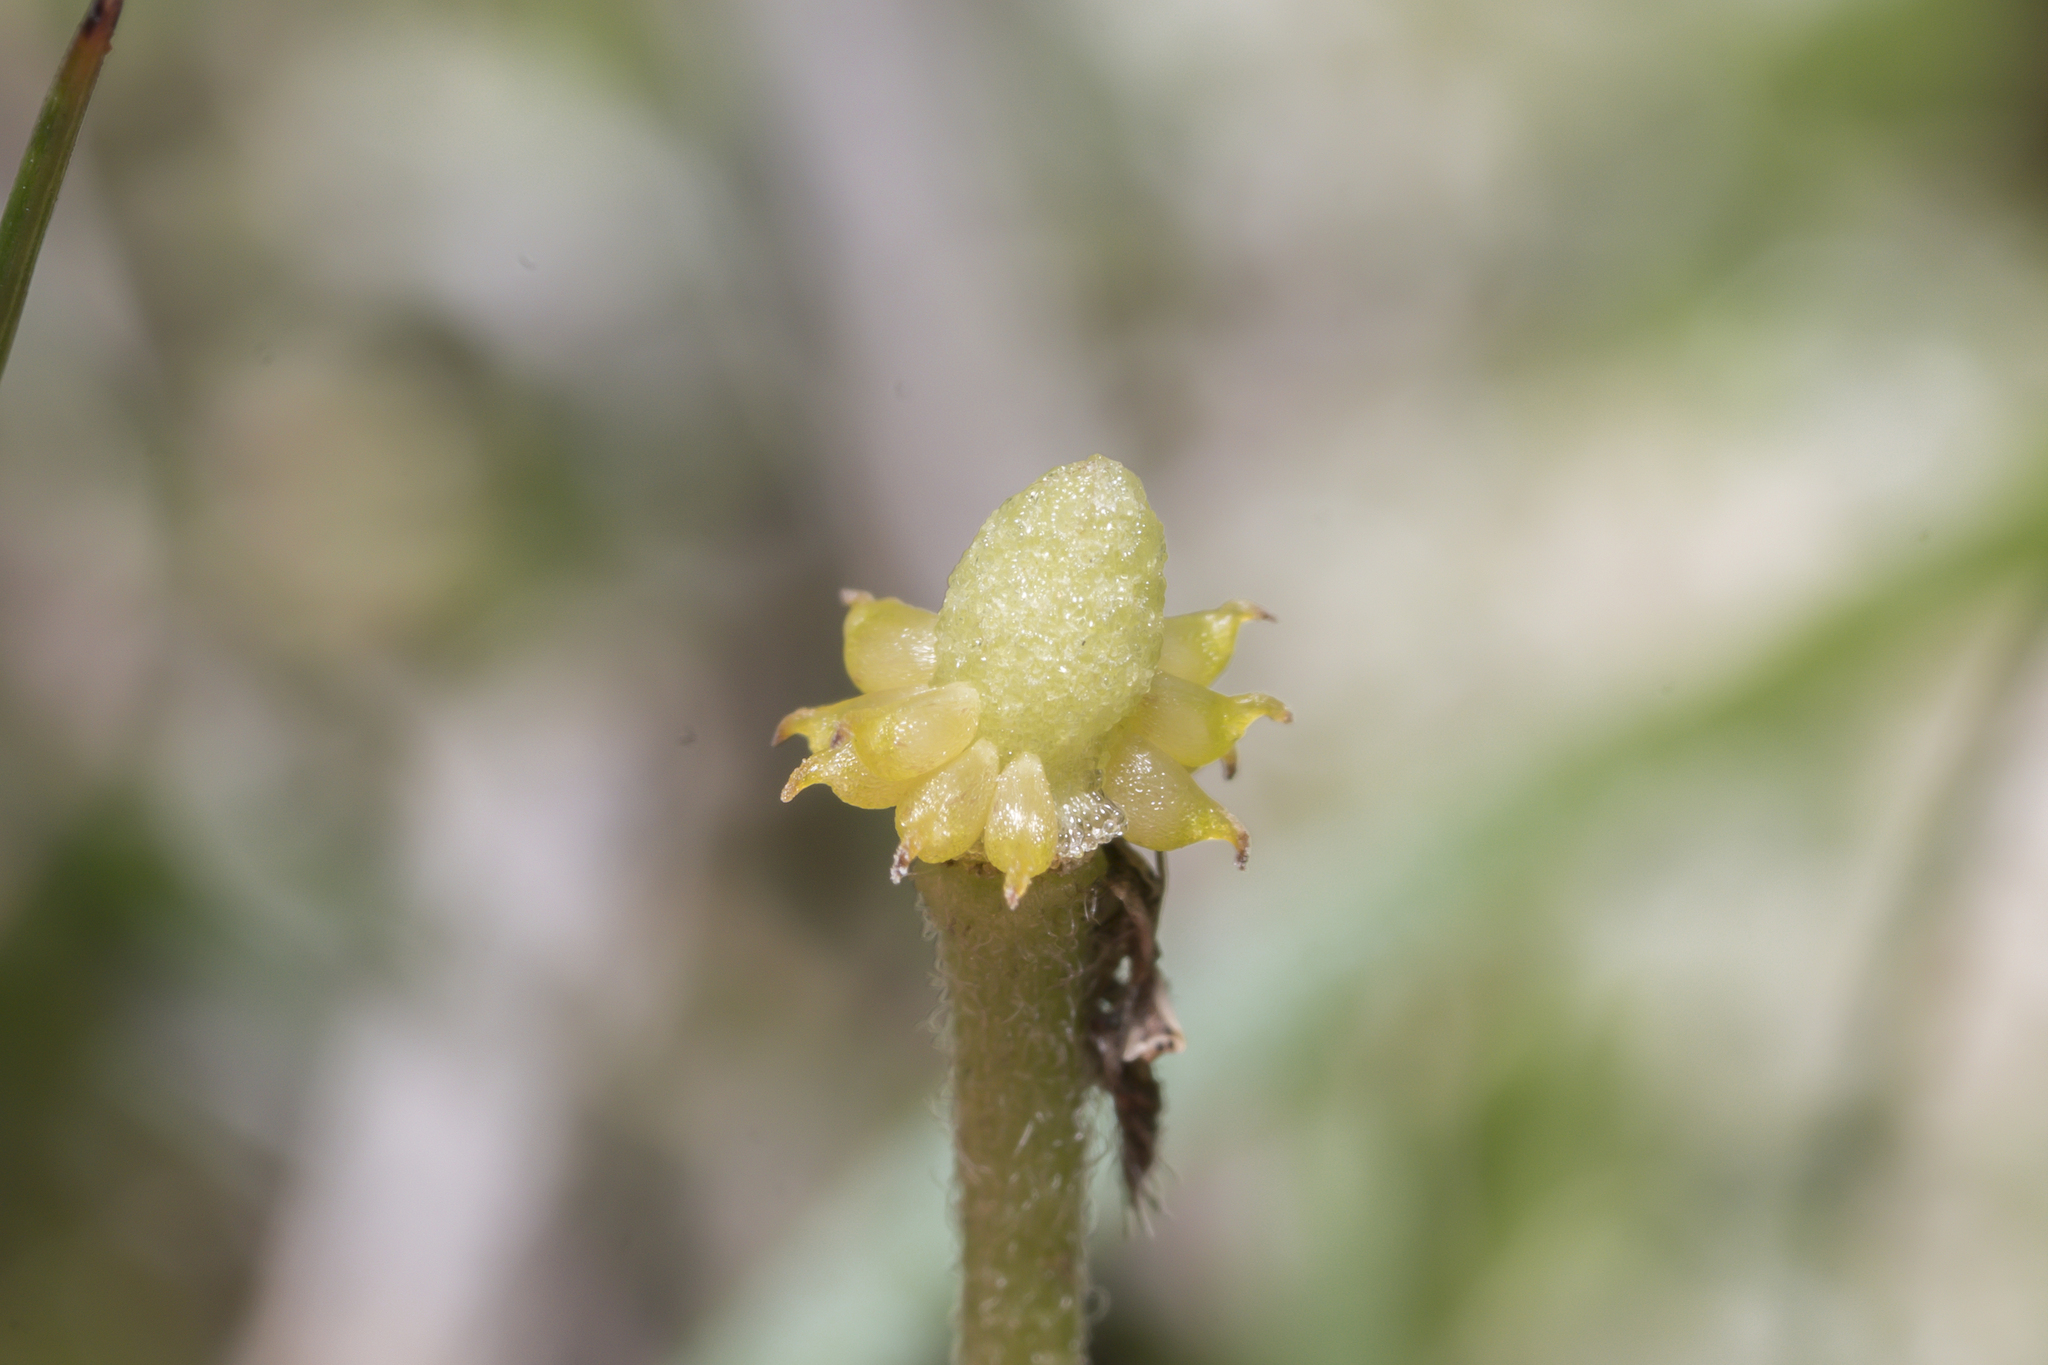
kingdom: Plantae
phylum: Tracheophyta
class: Magnoliopsida
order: Ranunculales
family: Ranunculaceae
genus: Ranunculus
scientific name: Ranunculus bullatus
